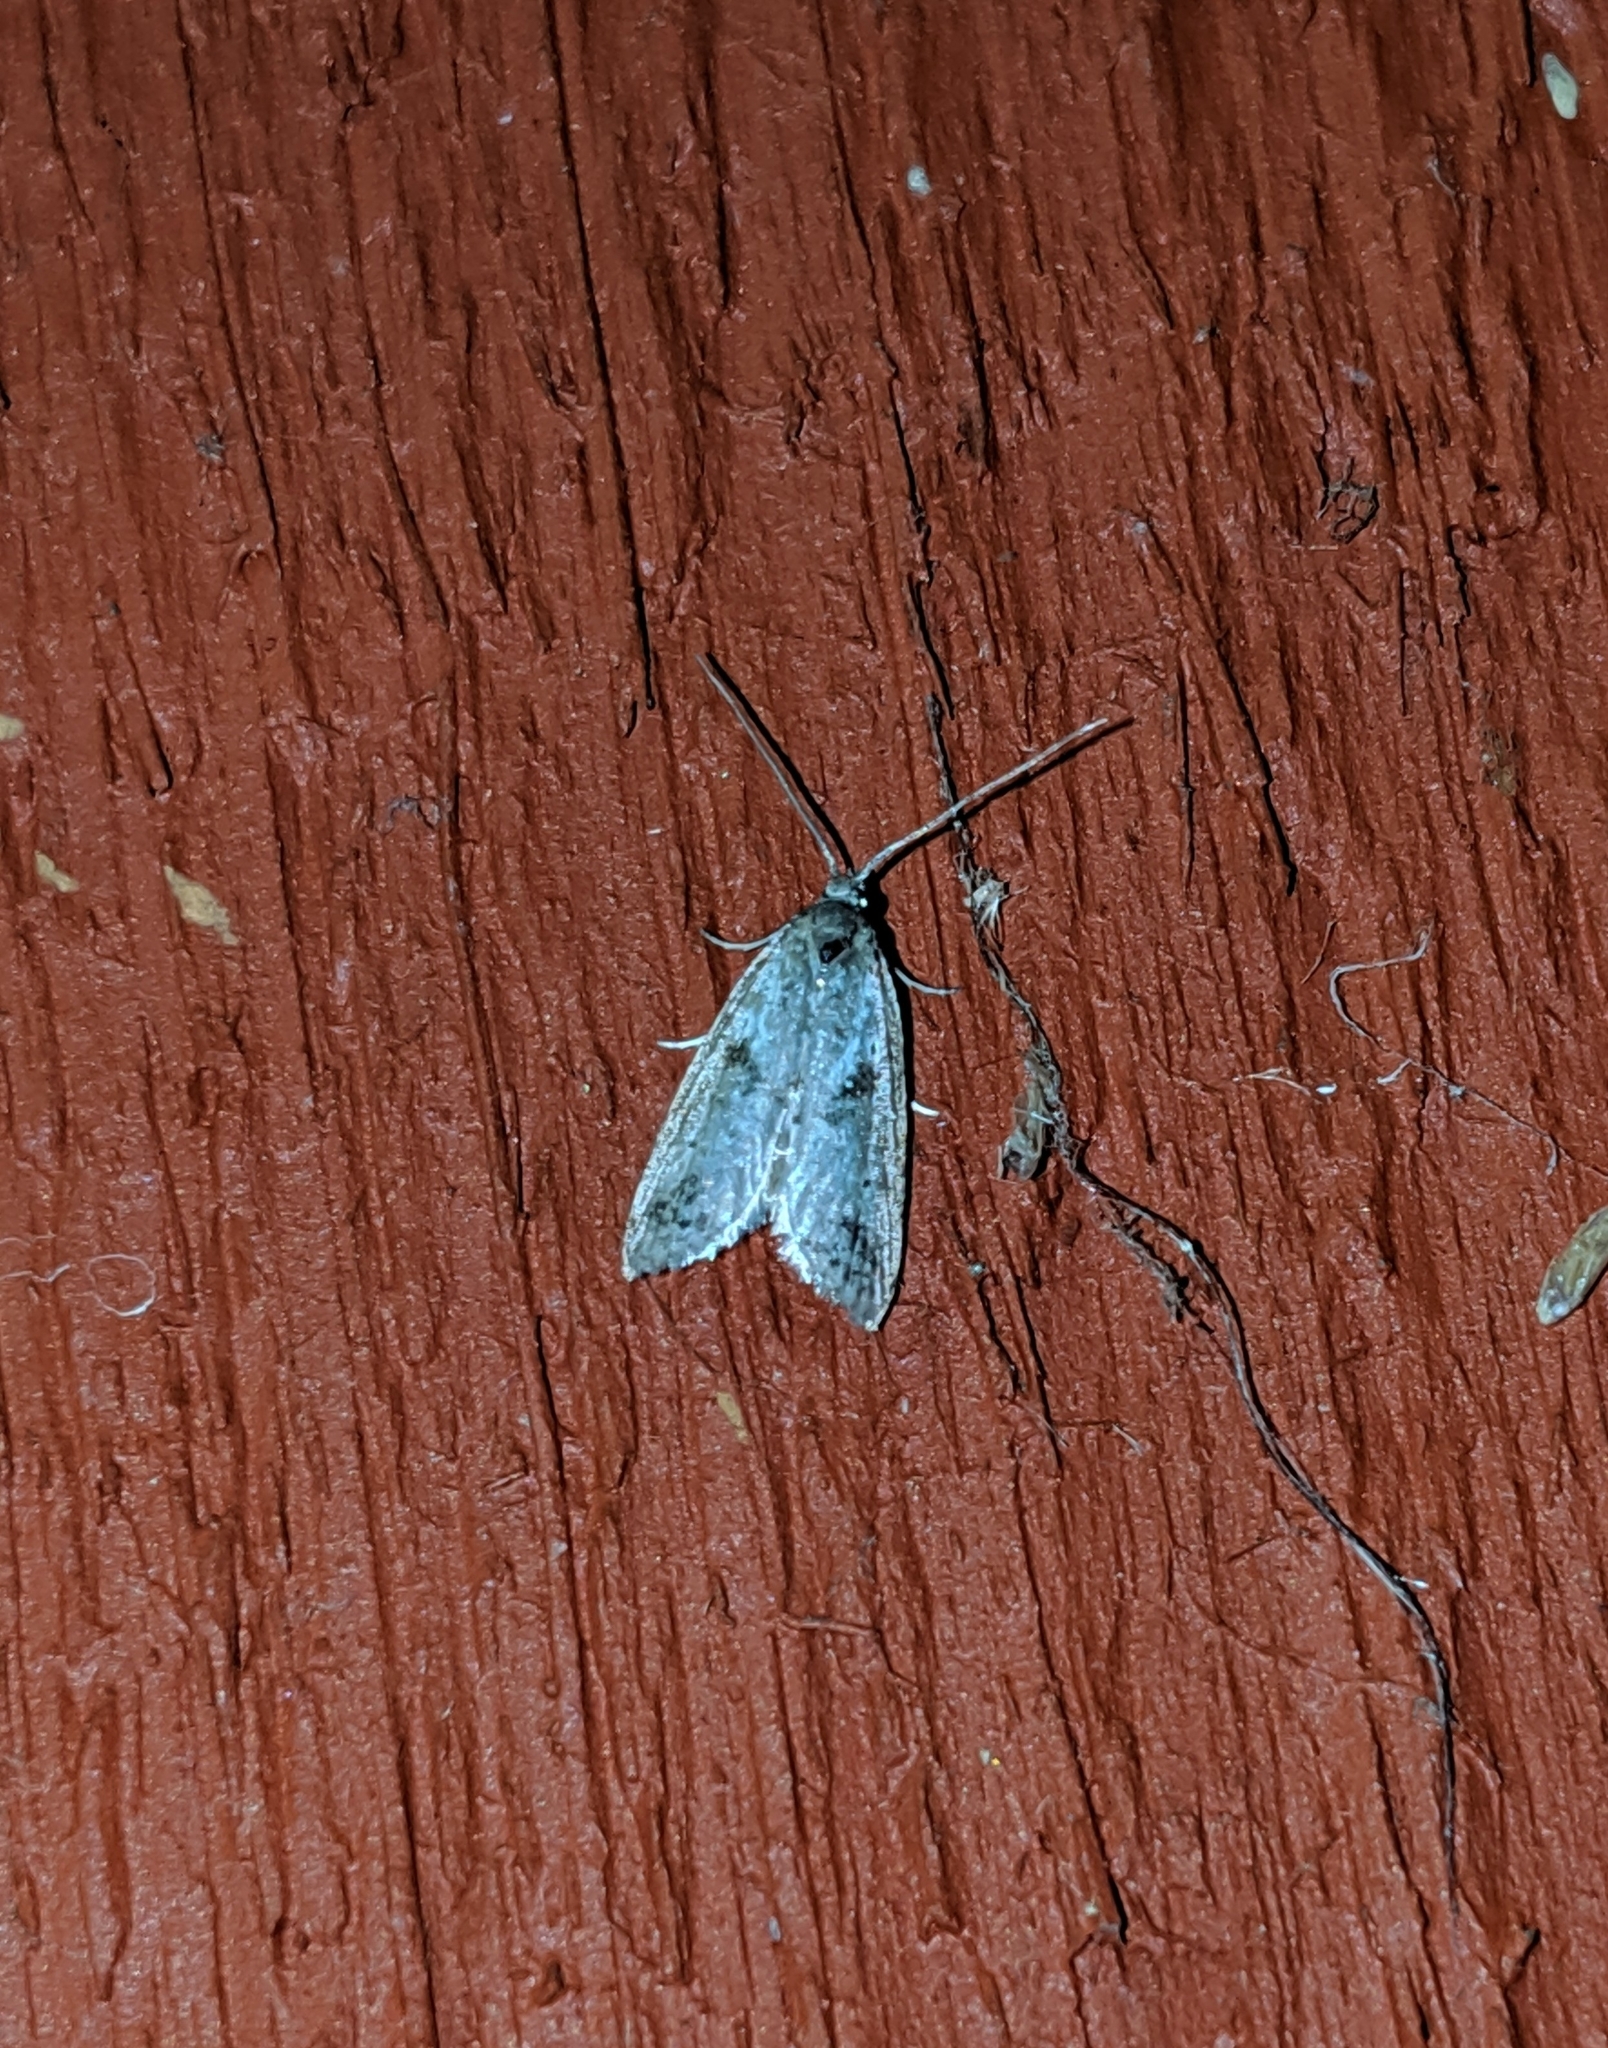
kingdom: Animalia
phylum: Arthropoda
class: Insecta
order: Lepidoptera
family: Copromorphidae
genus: Lotisma
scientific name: Lotisma trigonana
